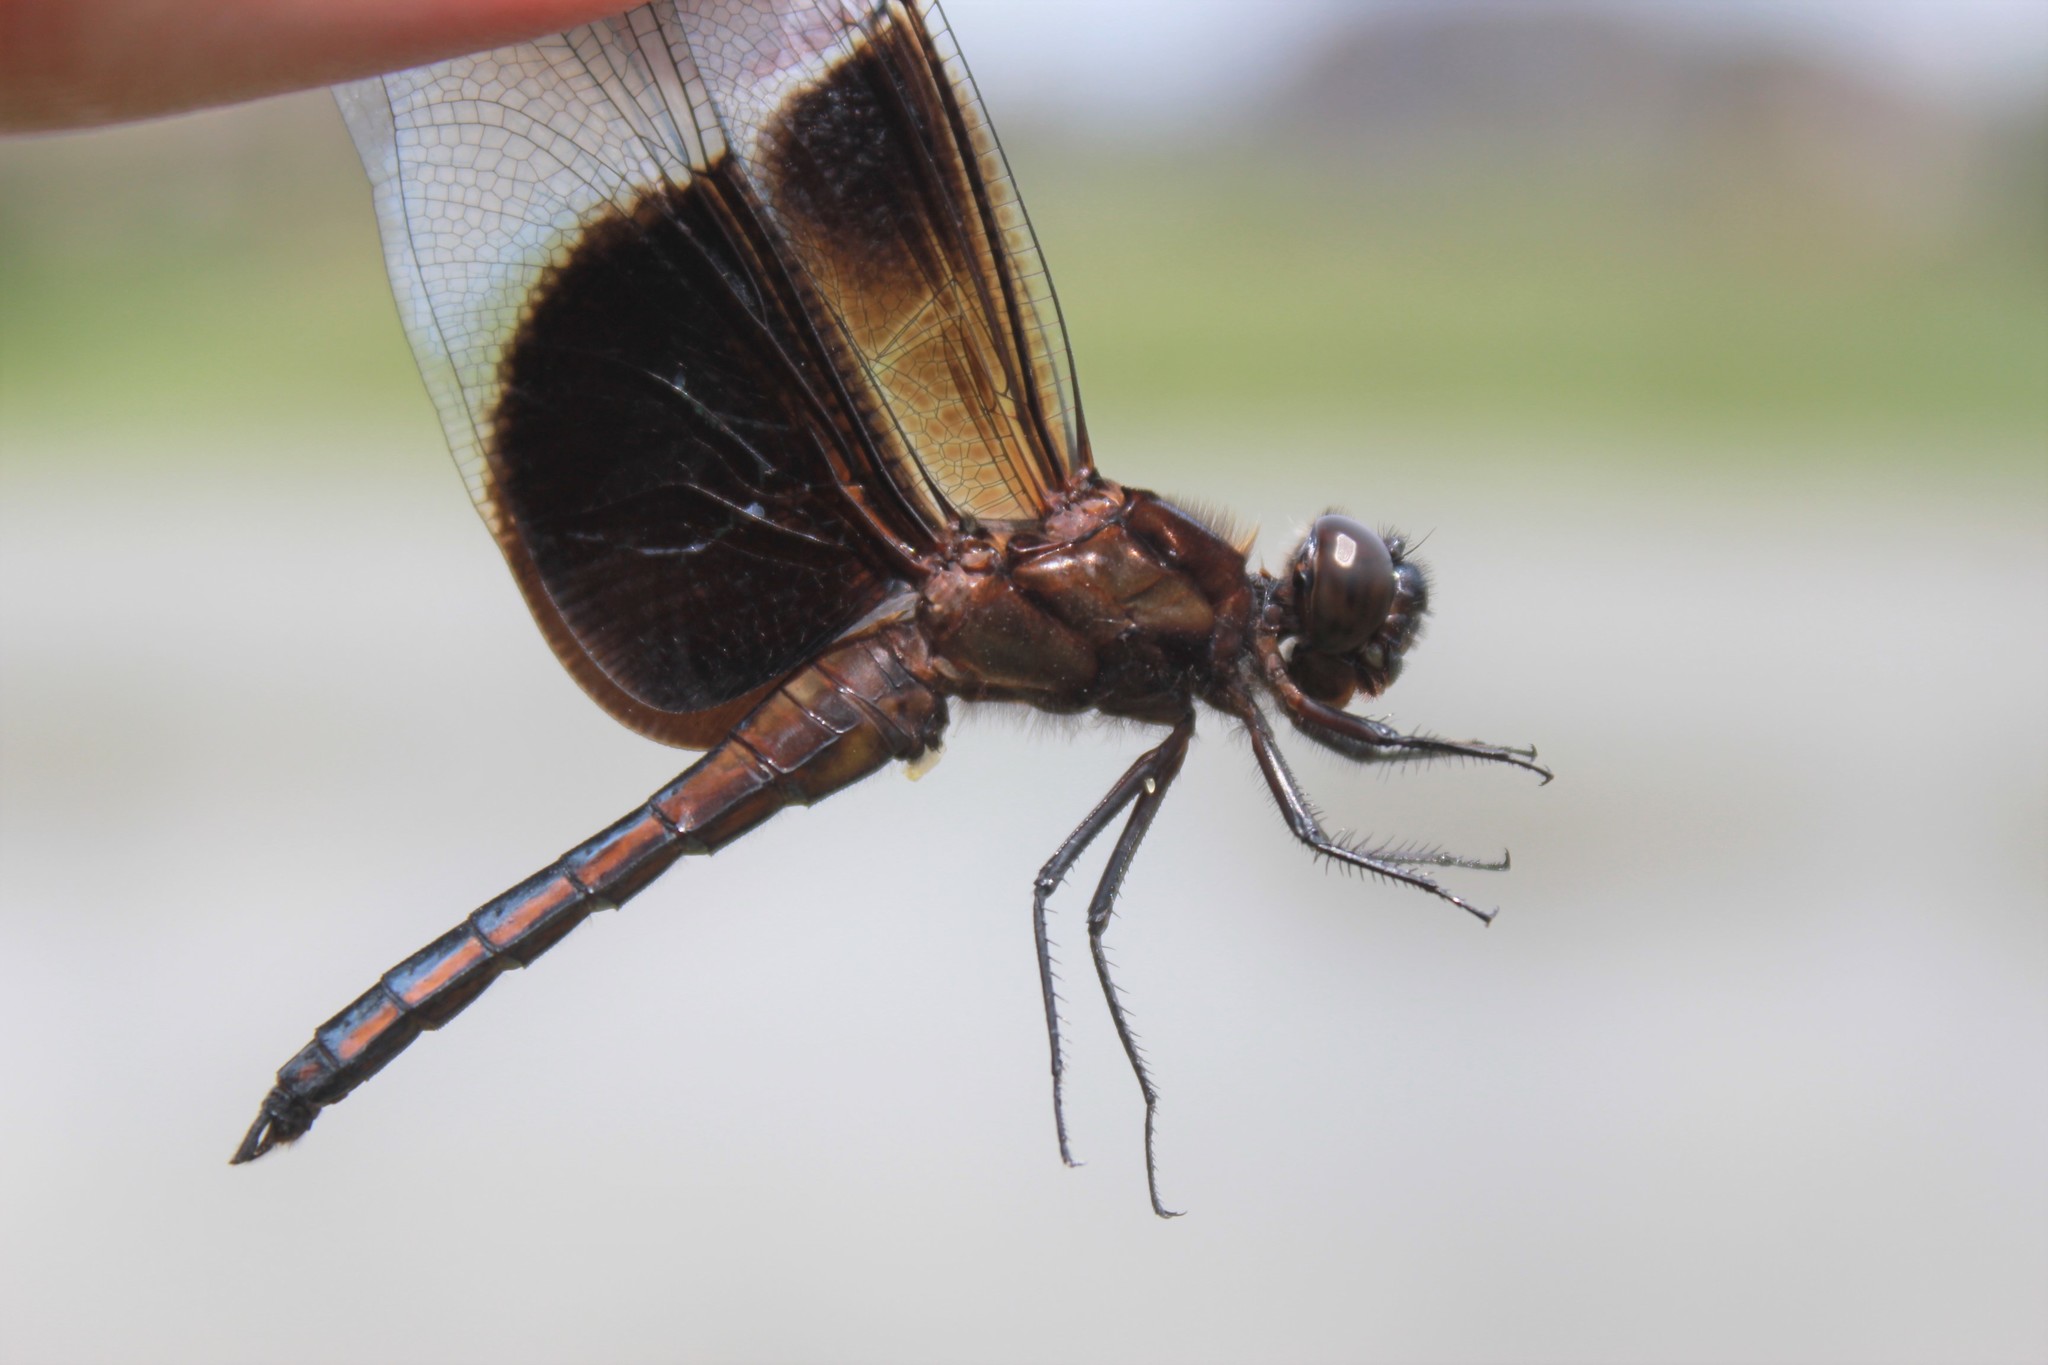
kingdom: Animalia
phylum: Arthropoda
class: Insecta
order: Odonata
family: Libellulidae
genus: Libellula
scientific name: Libellula luctuosa
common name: Widow skimmer
